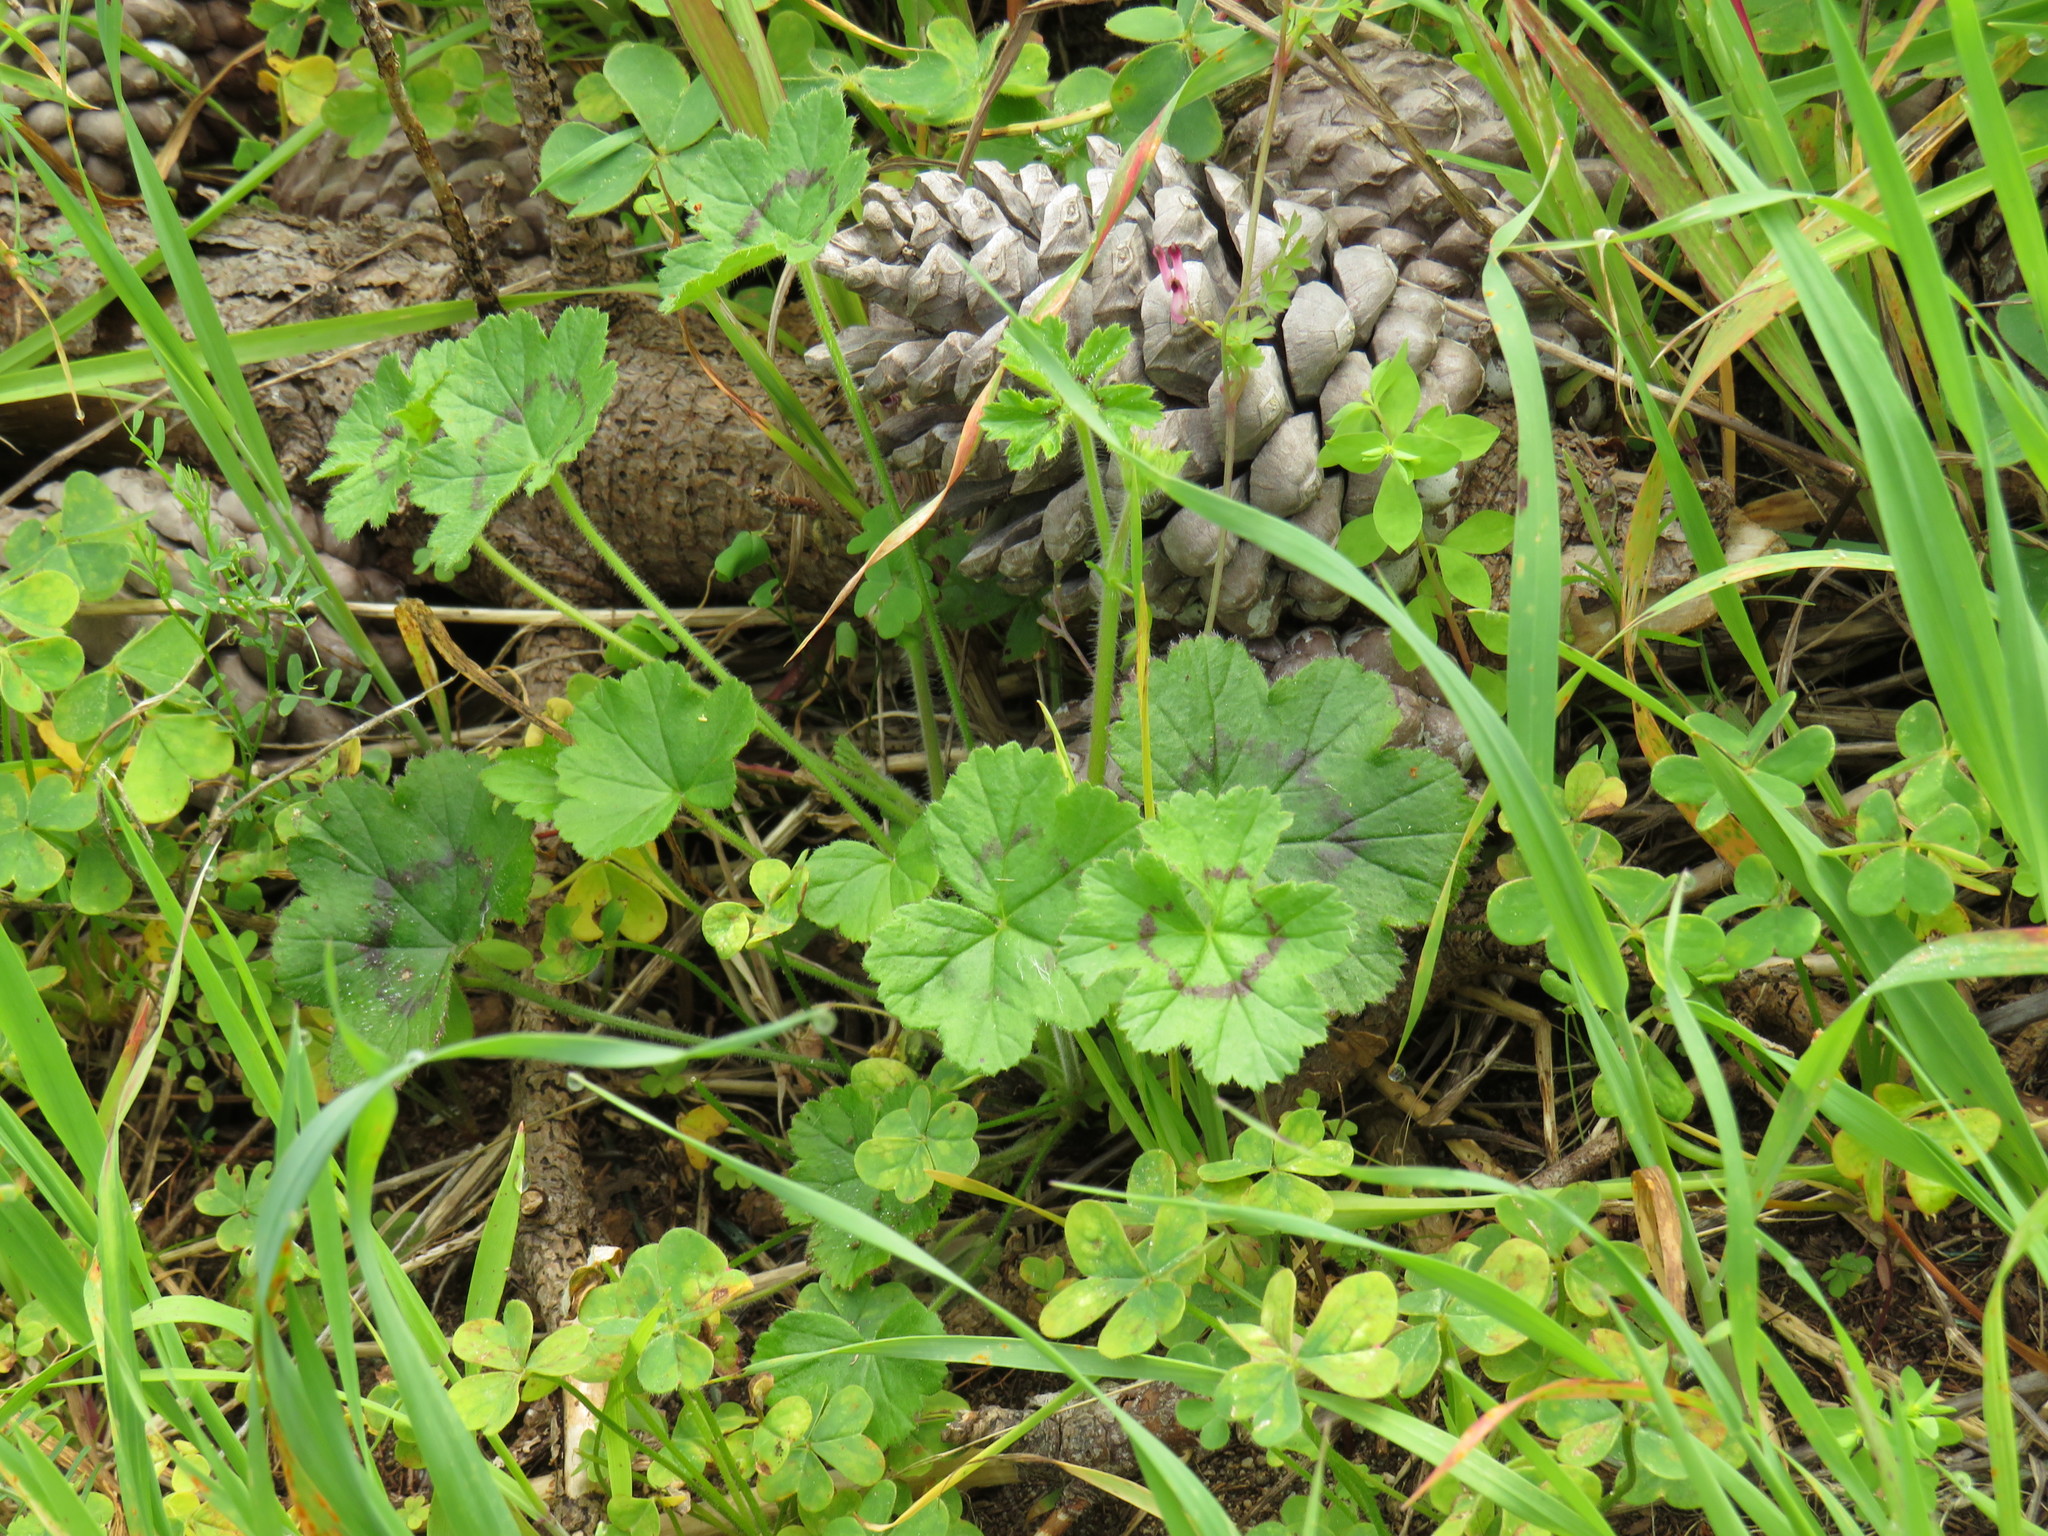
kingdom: Plantae
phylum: Tracheophyta
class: Magnoliopsida
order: Geraniales
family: Geraniaceae
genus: Pelargonium
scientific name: Pelargonium elongatum
